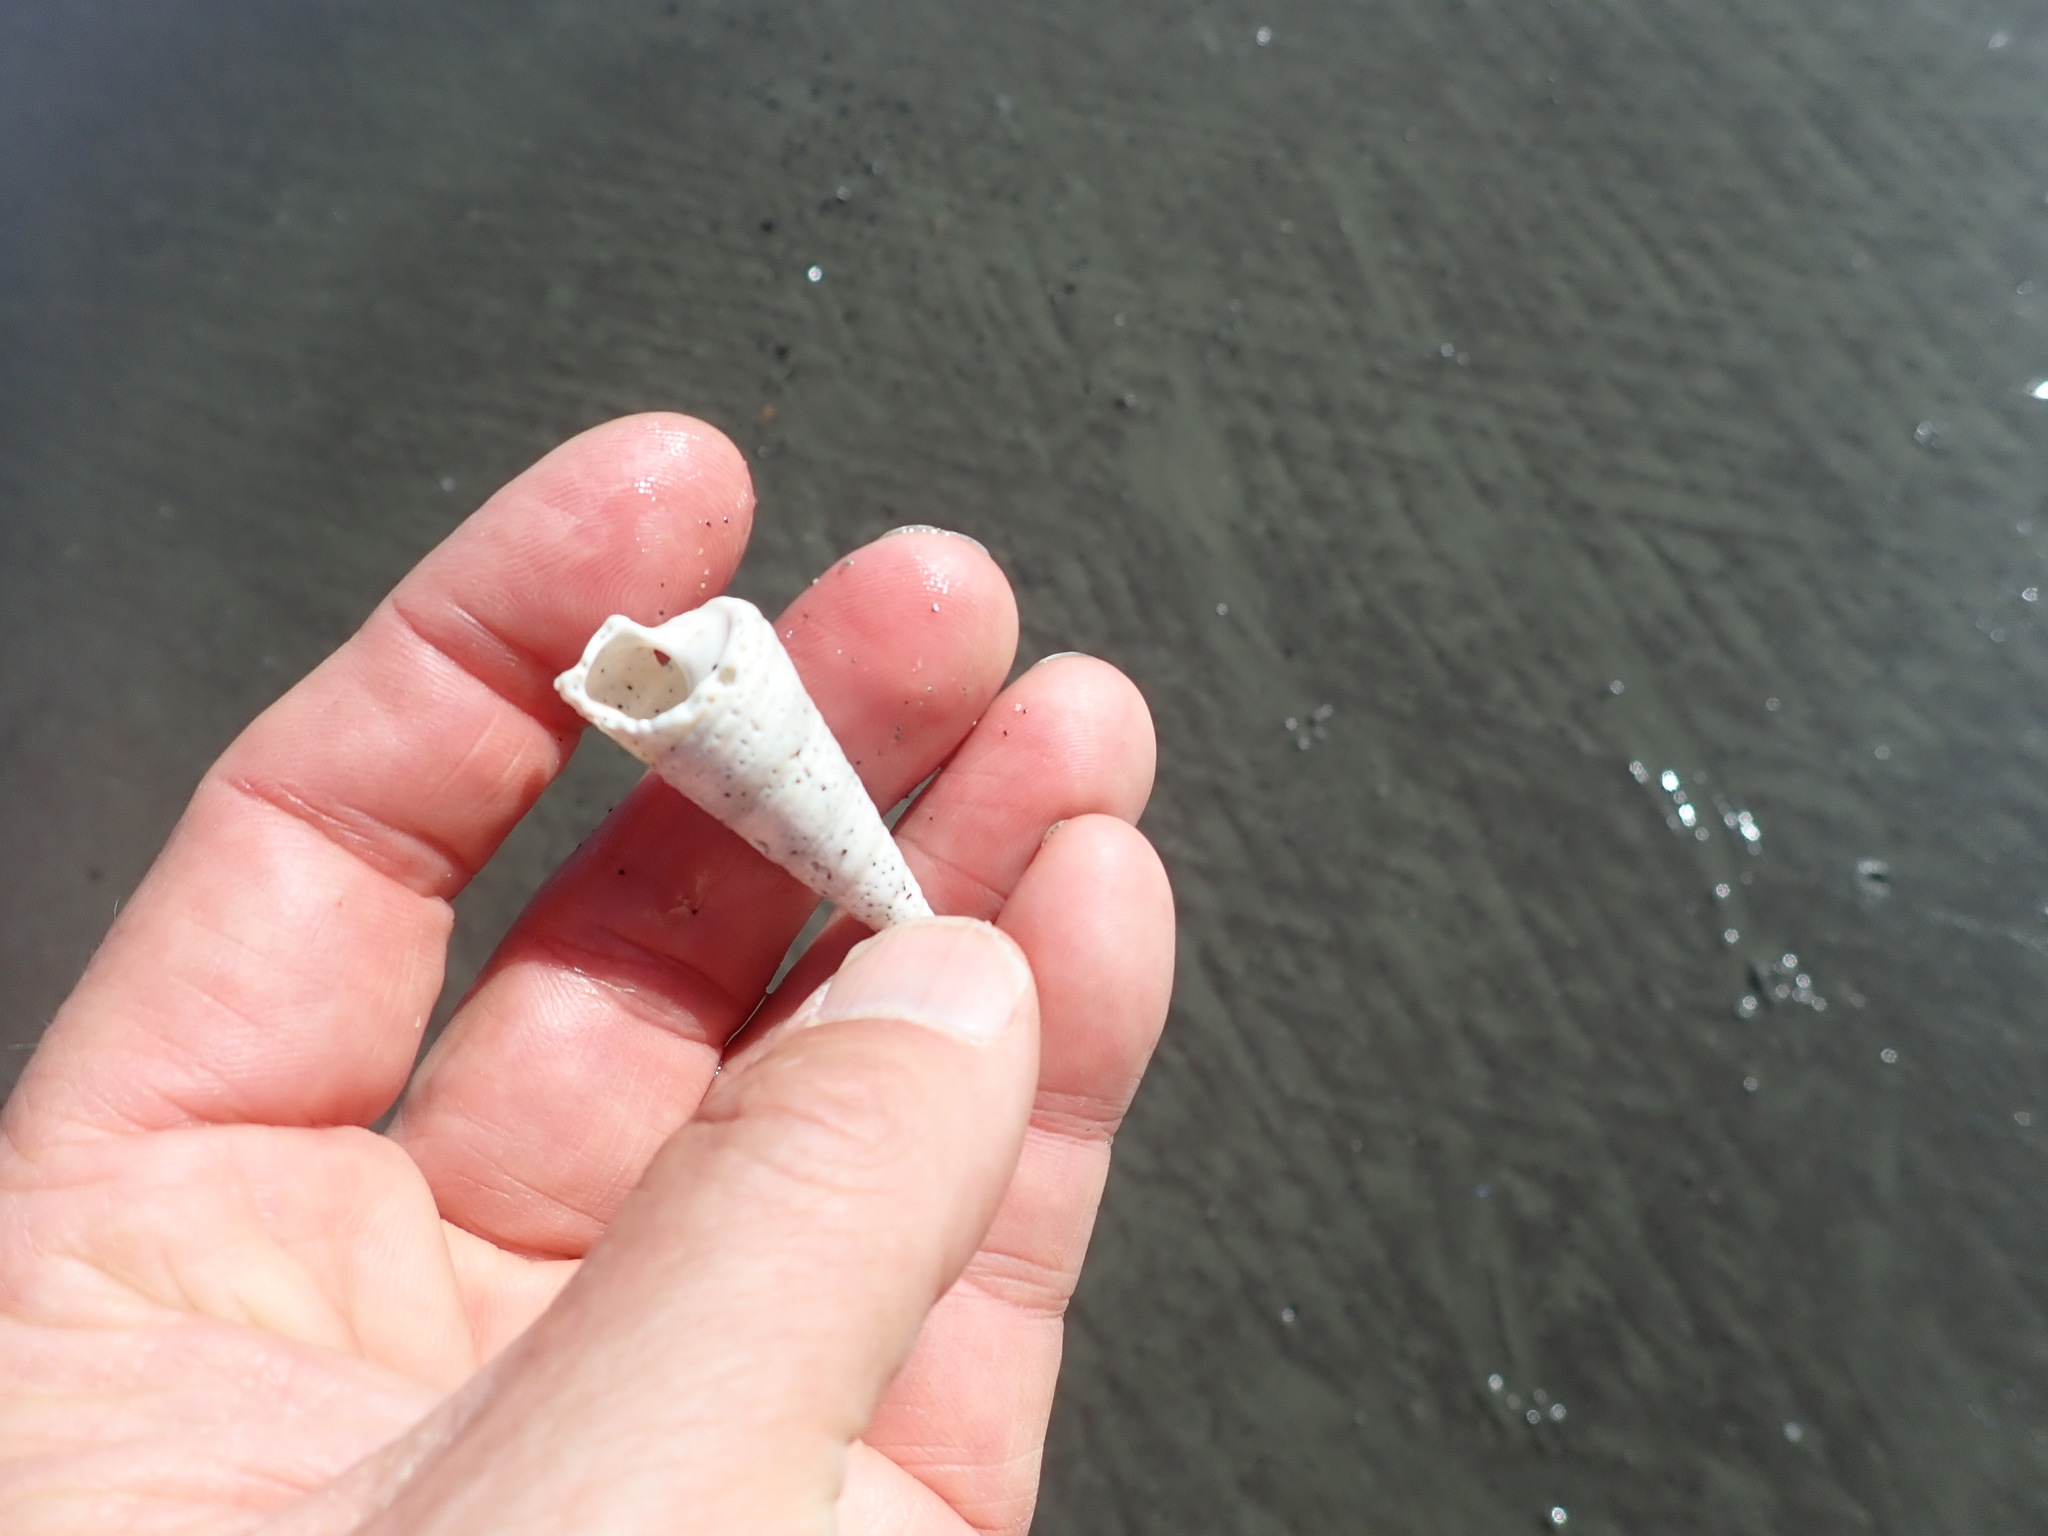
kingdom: Animalia
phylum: Mollusca
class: Gastropoda
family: Turritellidae
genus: Maoricolpus
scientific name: Maoricolpus roseus
